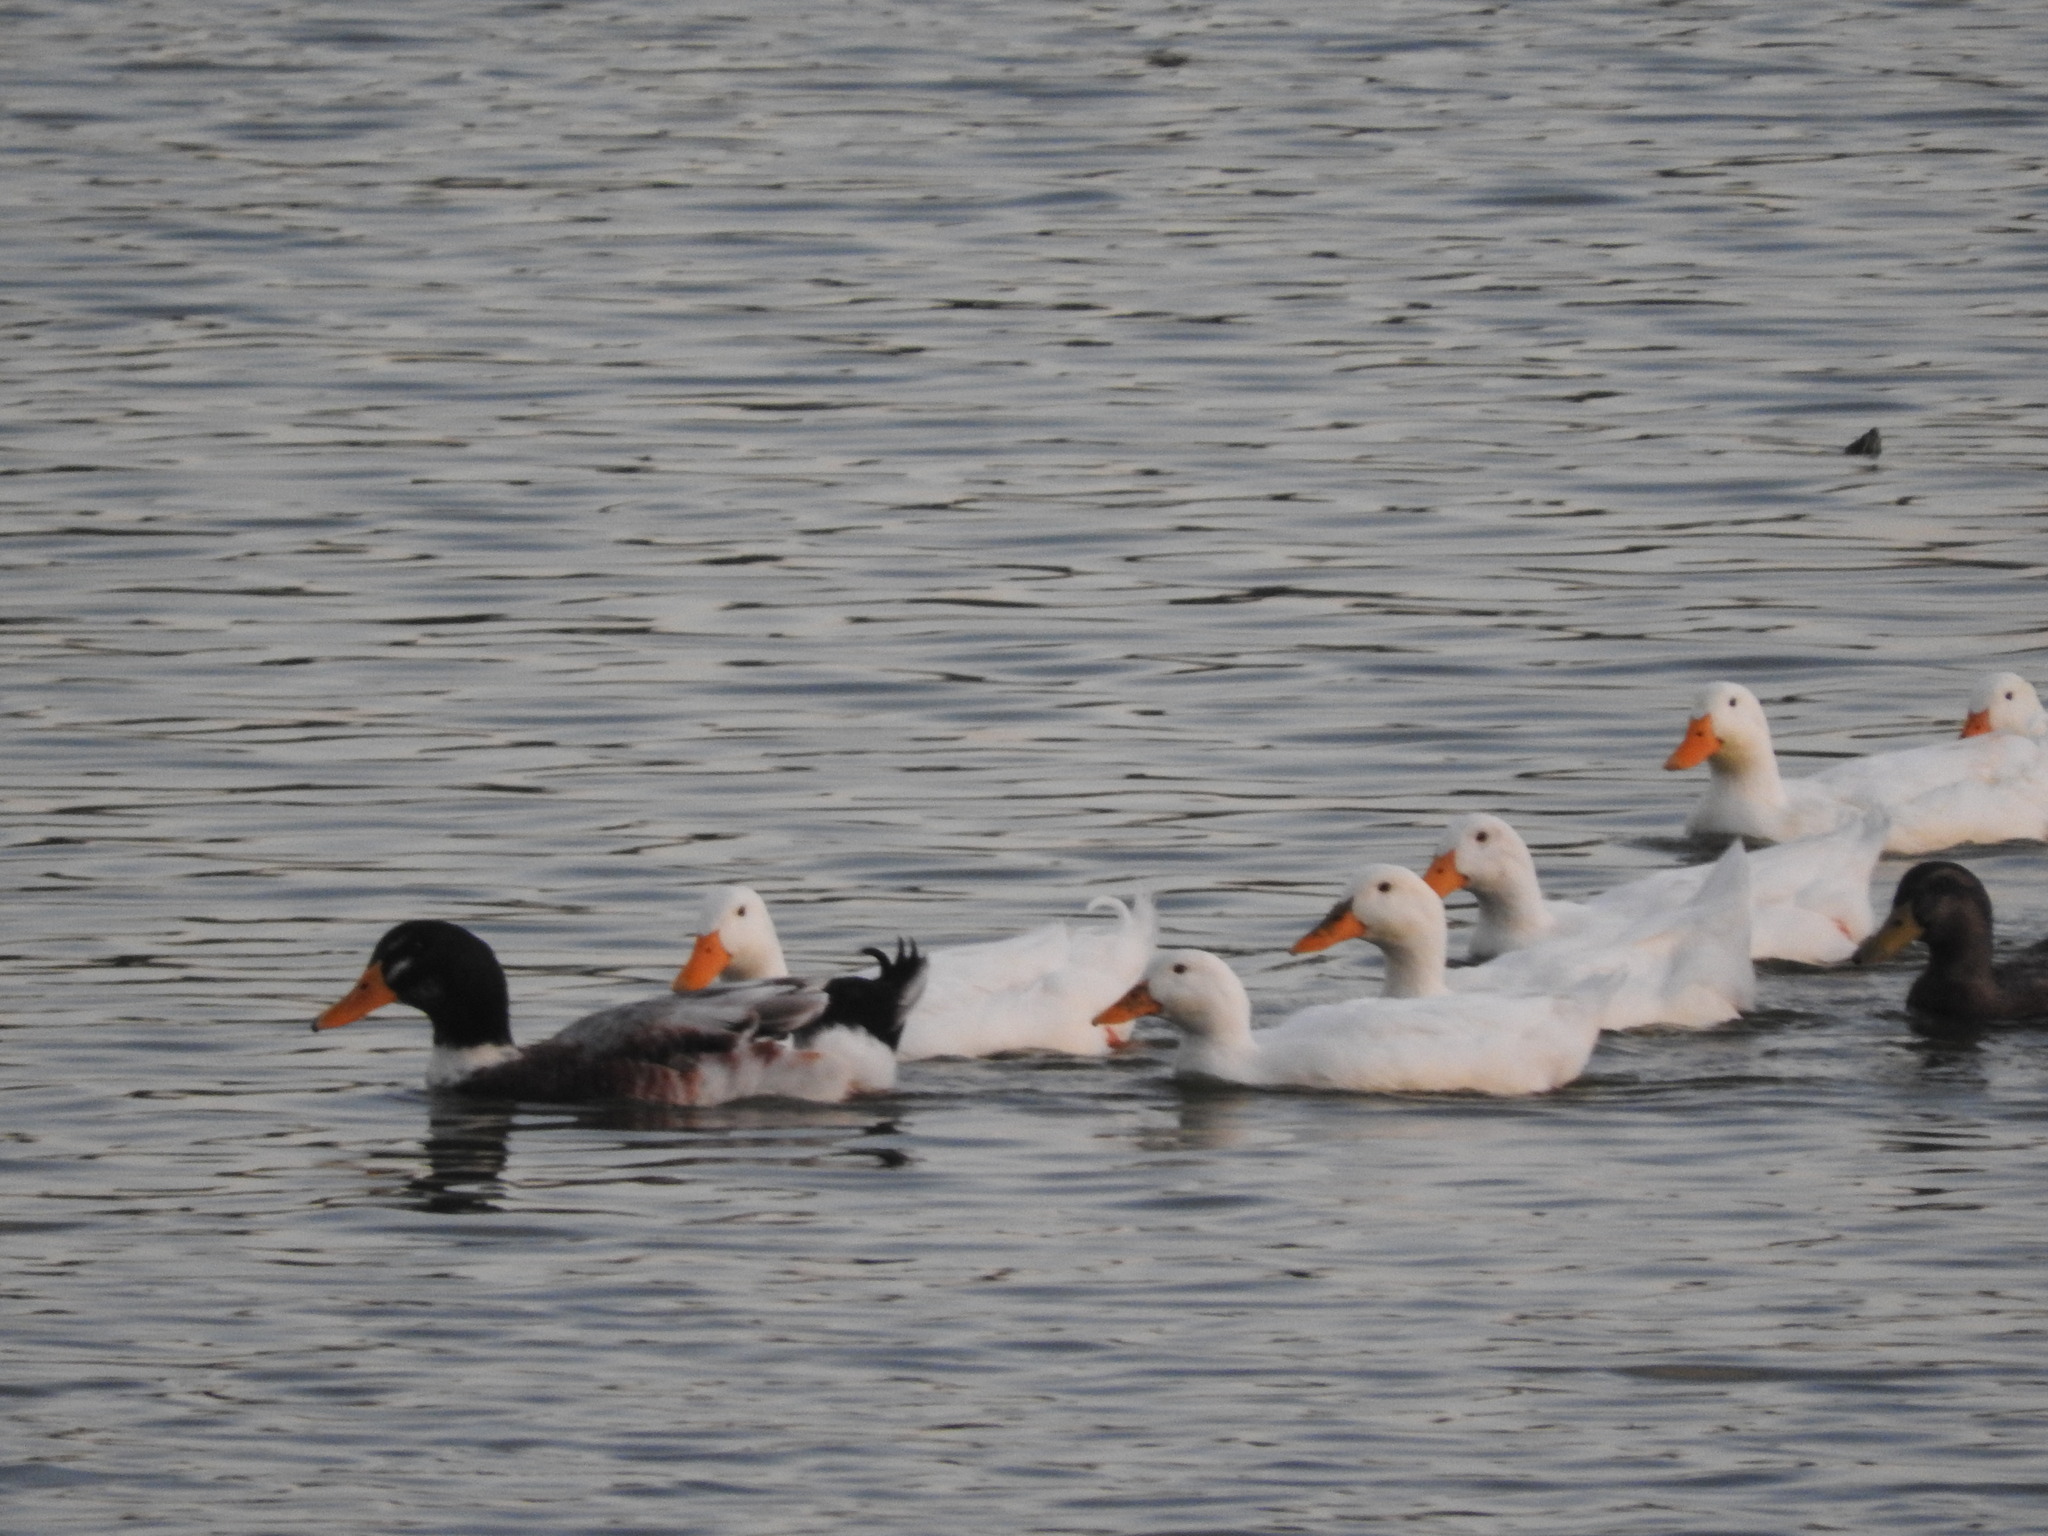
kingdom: Animalia
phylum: Chordata
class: Aves
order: Anseriformes
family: Anatidae
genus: Anas
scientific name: Anas platyrhynchos
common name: Mallard
